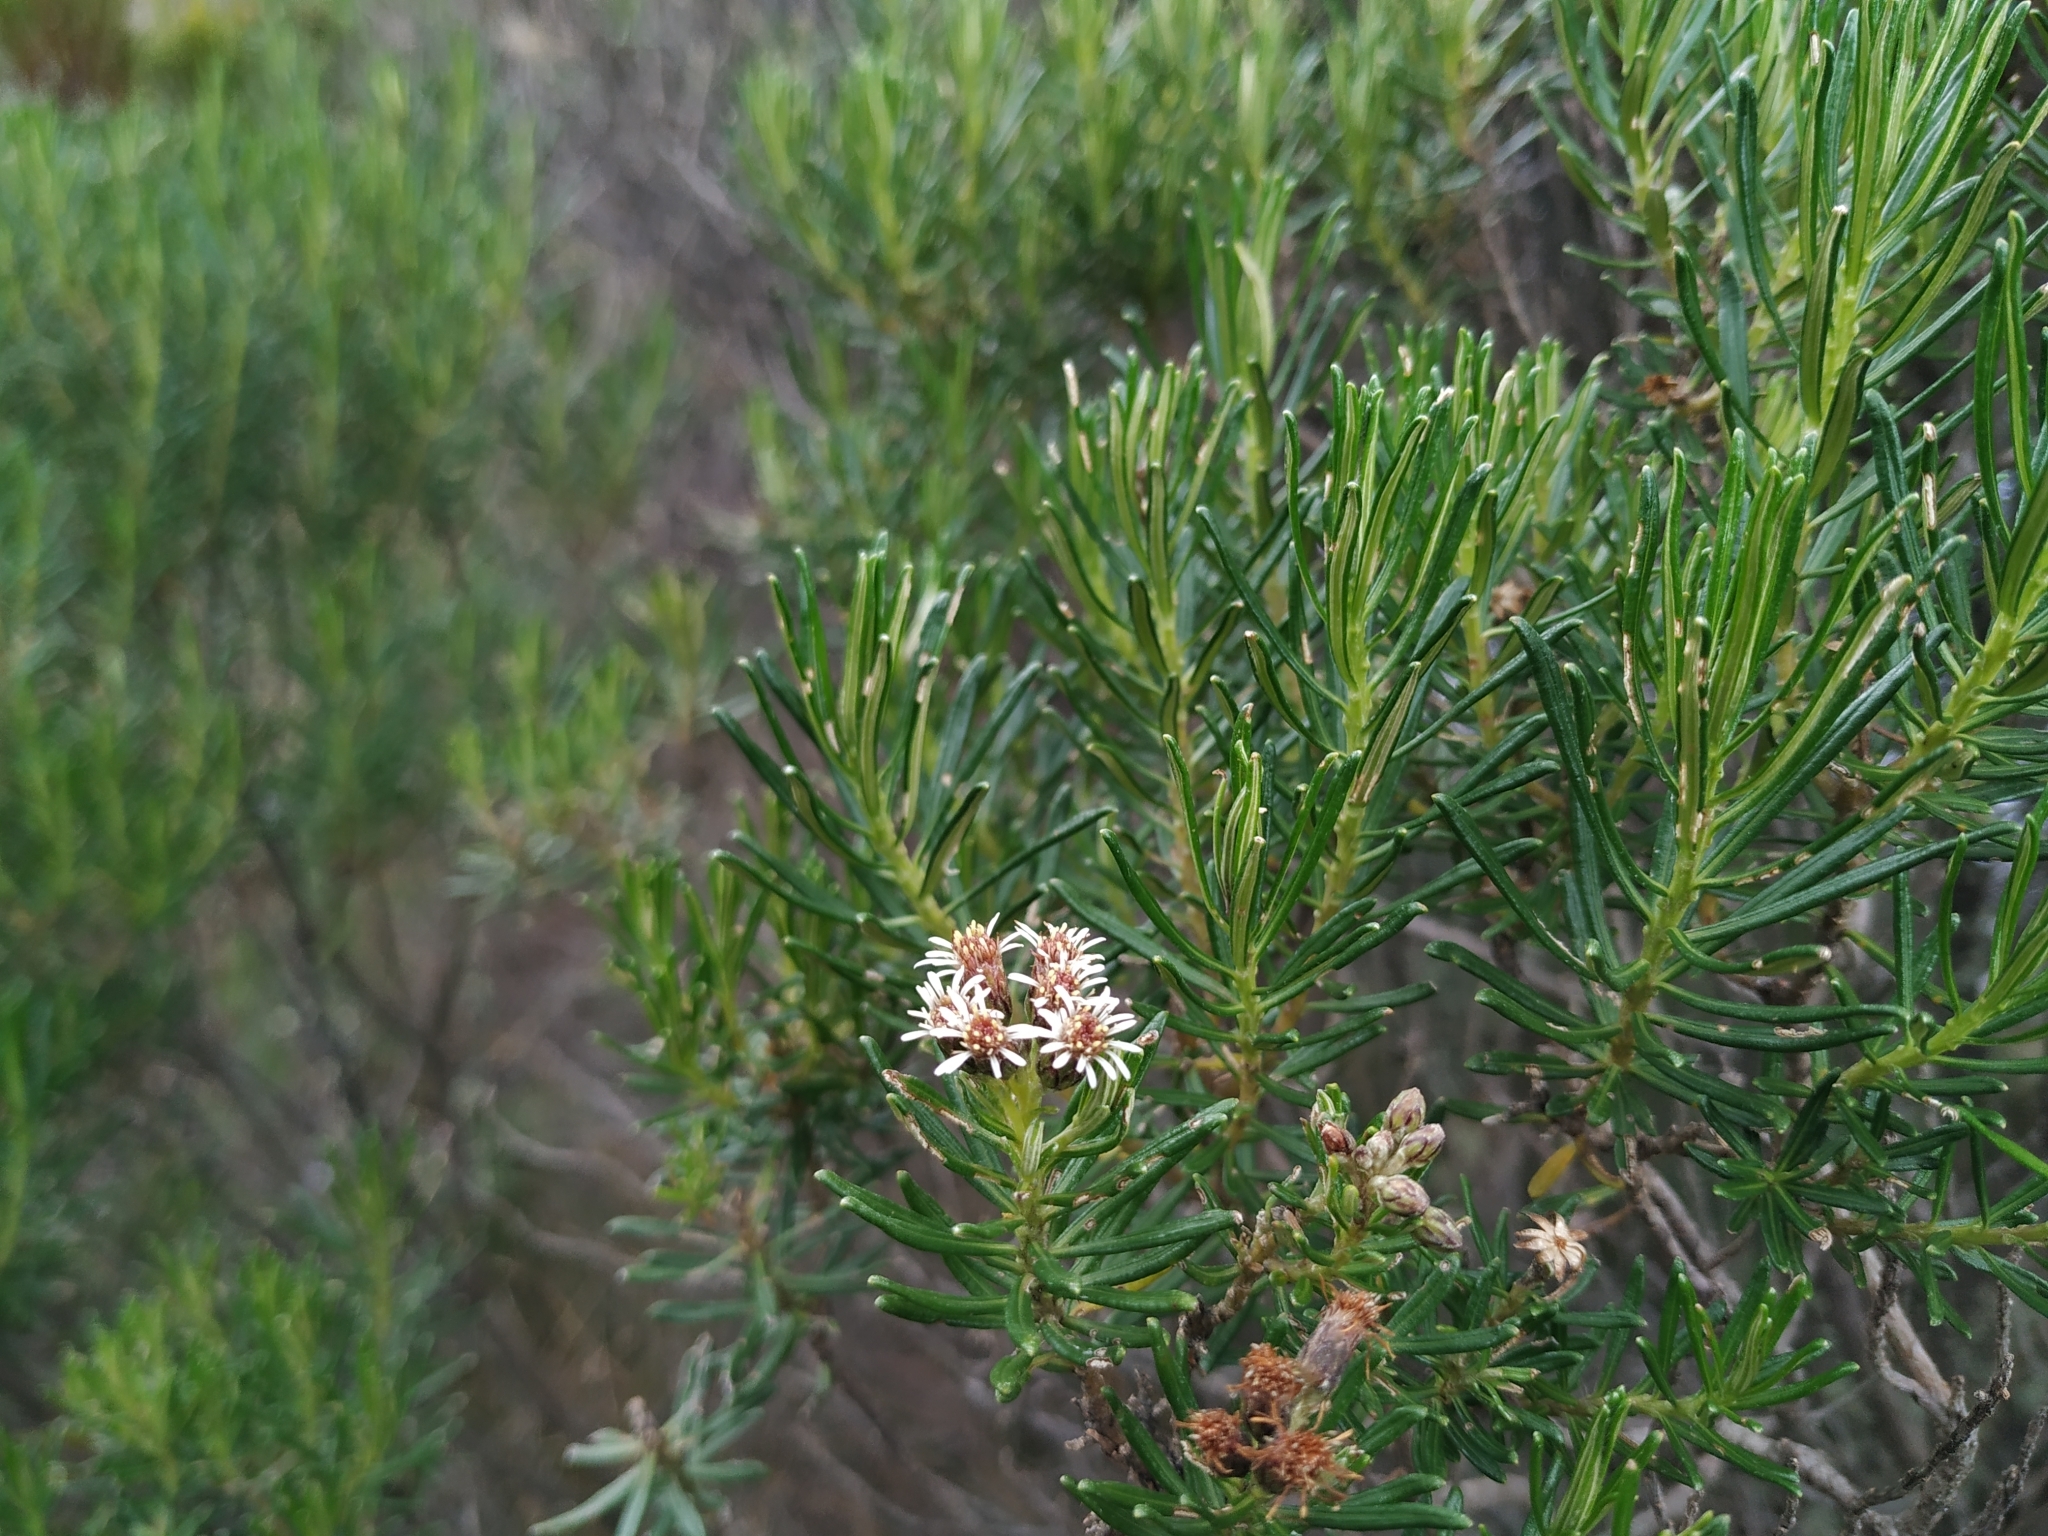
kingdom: Plantae
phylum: Tracheophyta
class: Magnoliopsida
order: Asterales
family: Asteraceae
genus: Linochilus
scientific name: Linochilus revolutus
